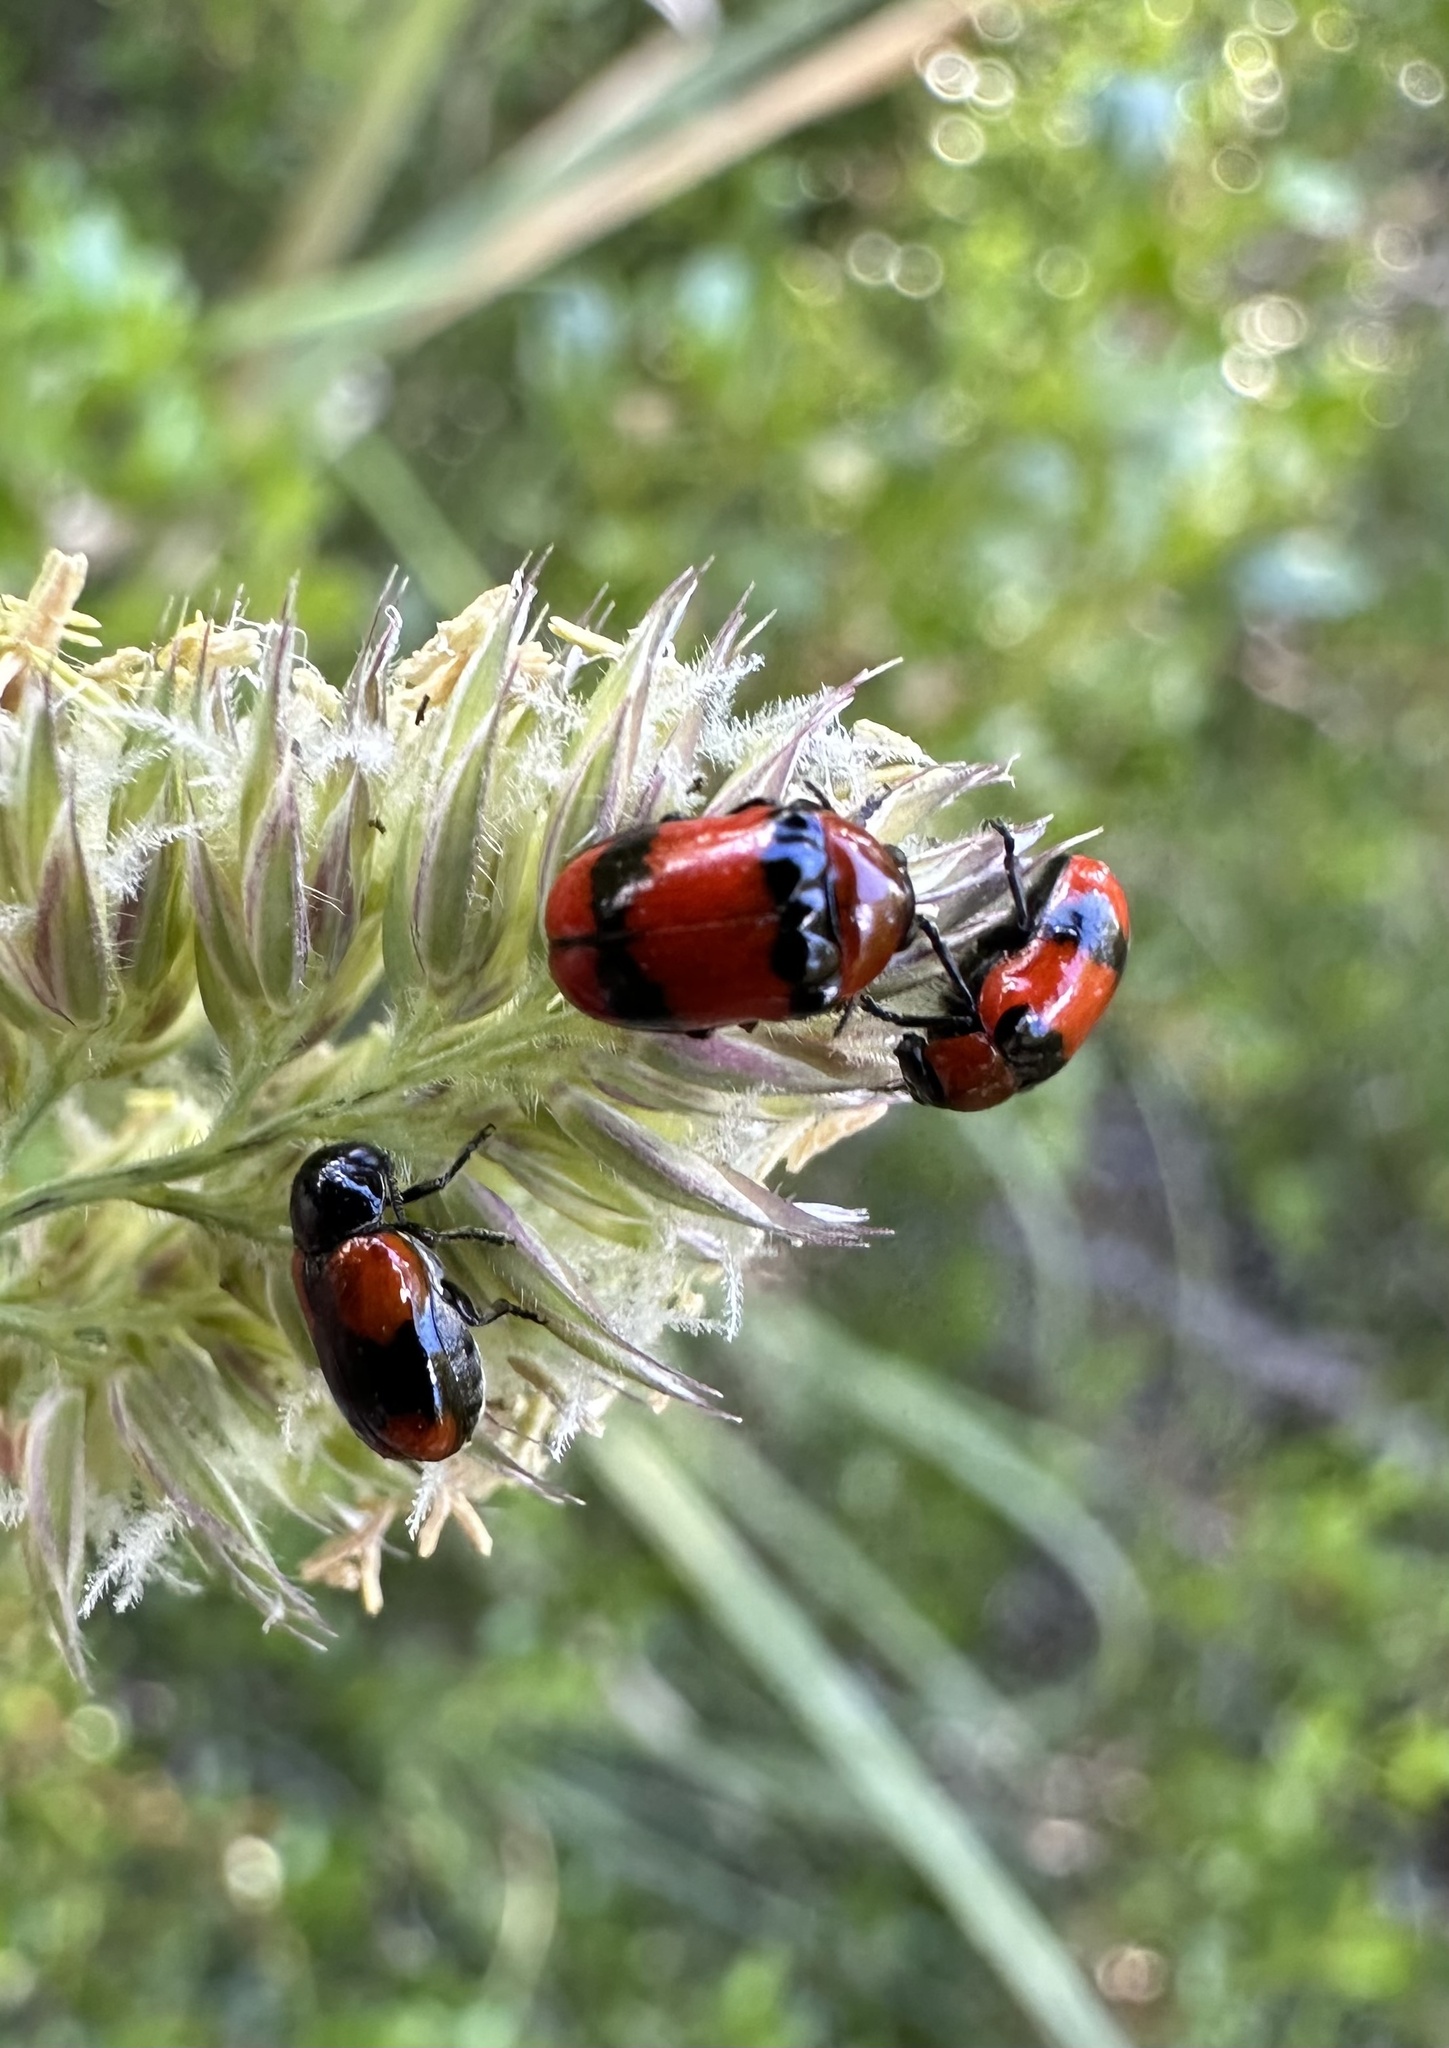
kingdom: Animalia
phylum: Arthropoda
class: Insecta
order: Coleoptera
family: Chrysomelidae
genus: Dachrys
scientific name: Dachrys
